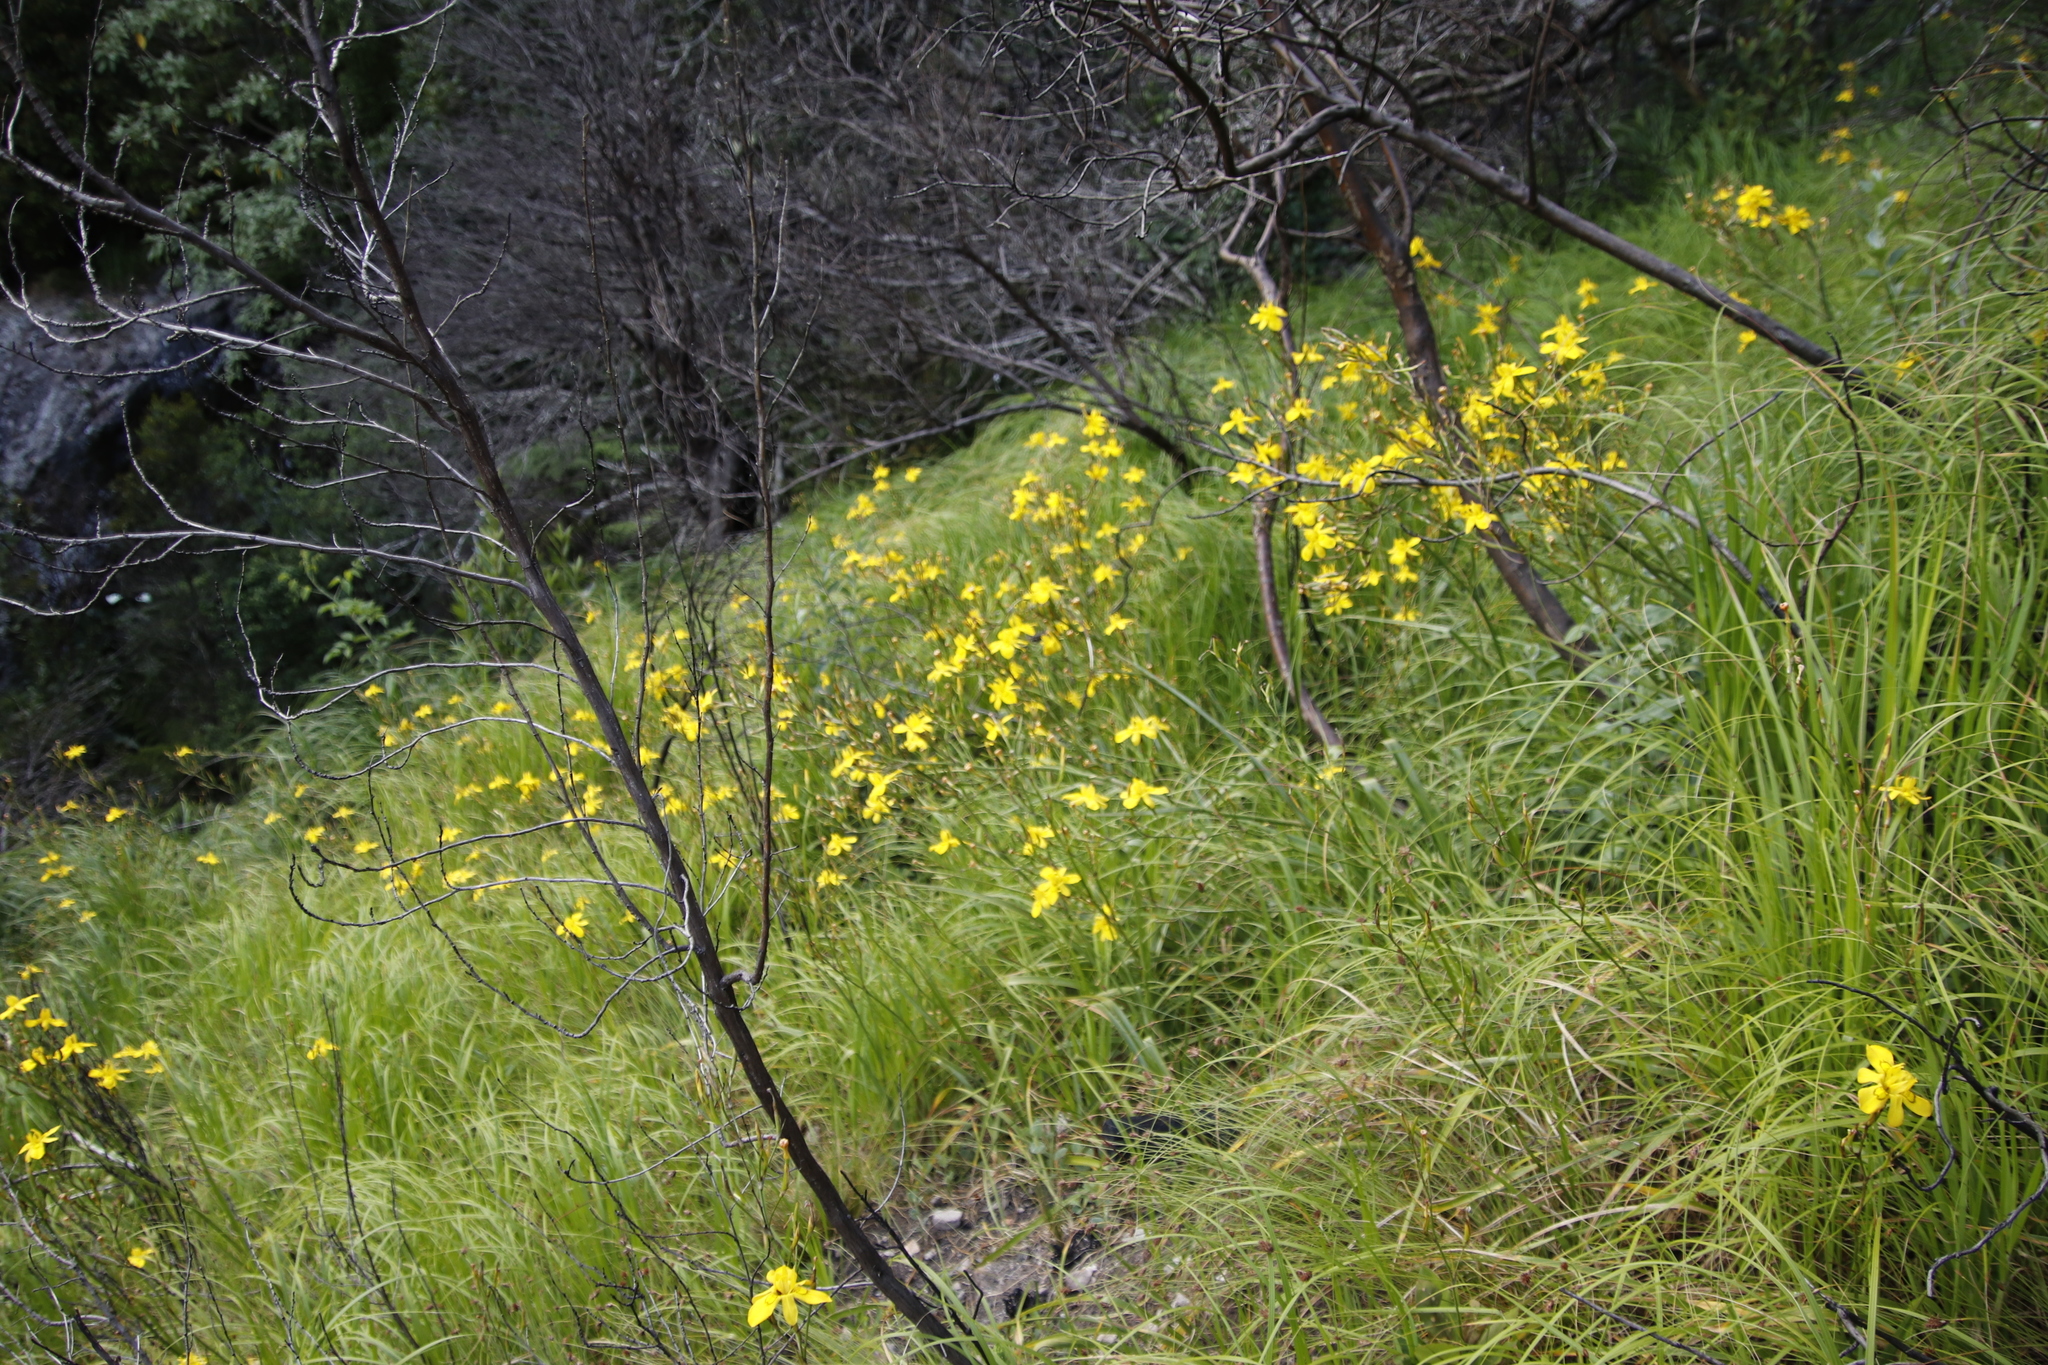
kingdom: Plantae
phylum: Tracheophyta
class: Liliopsida
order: Asparagales
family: Iridaceae
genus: Moraea
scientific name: Moraea ramosissima
